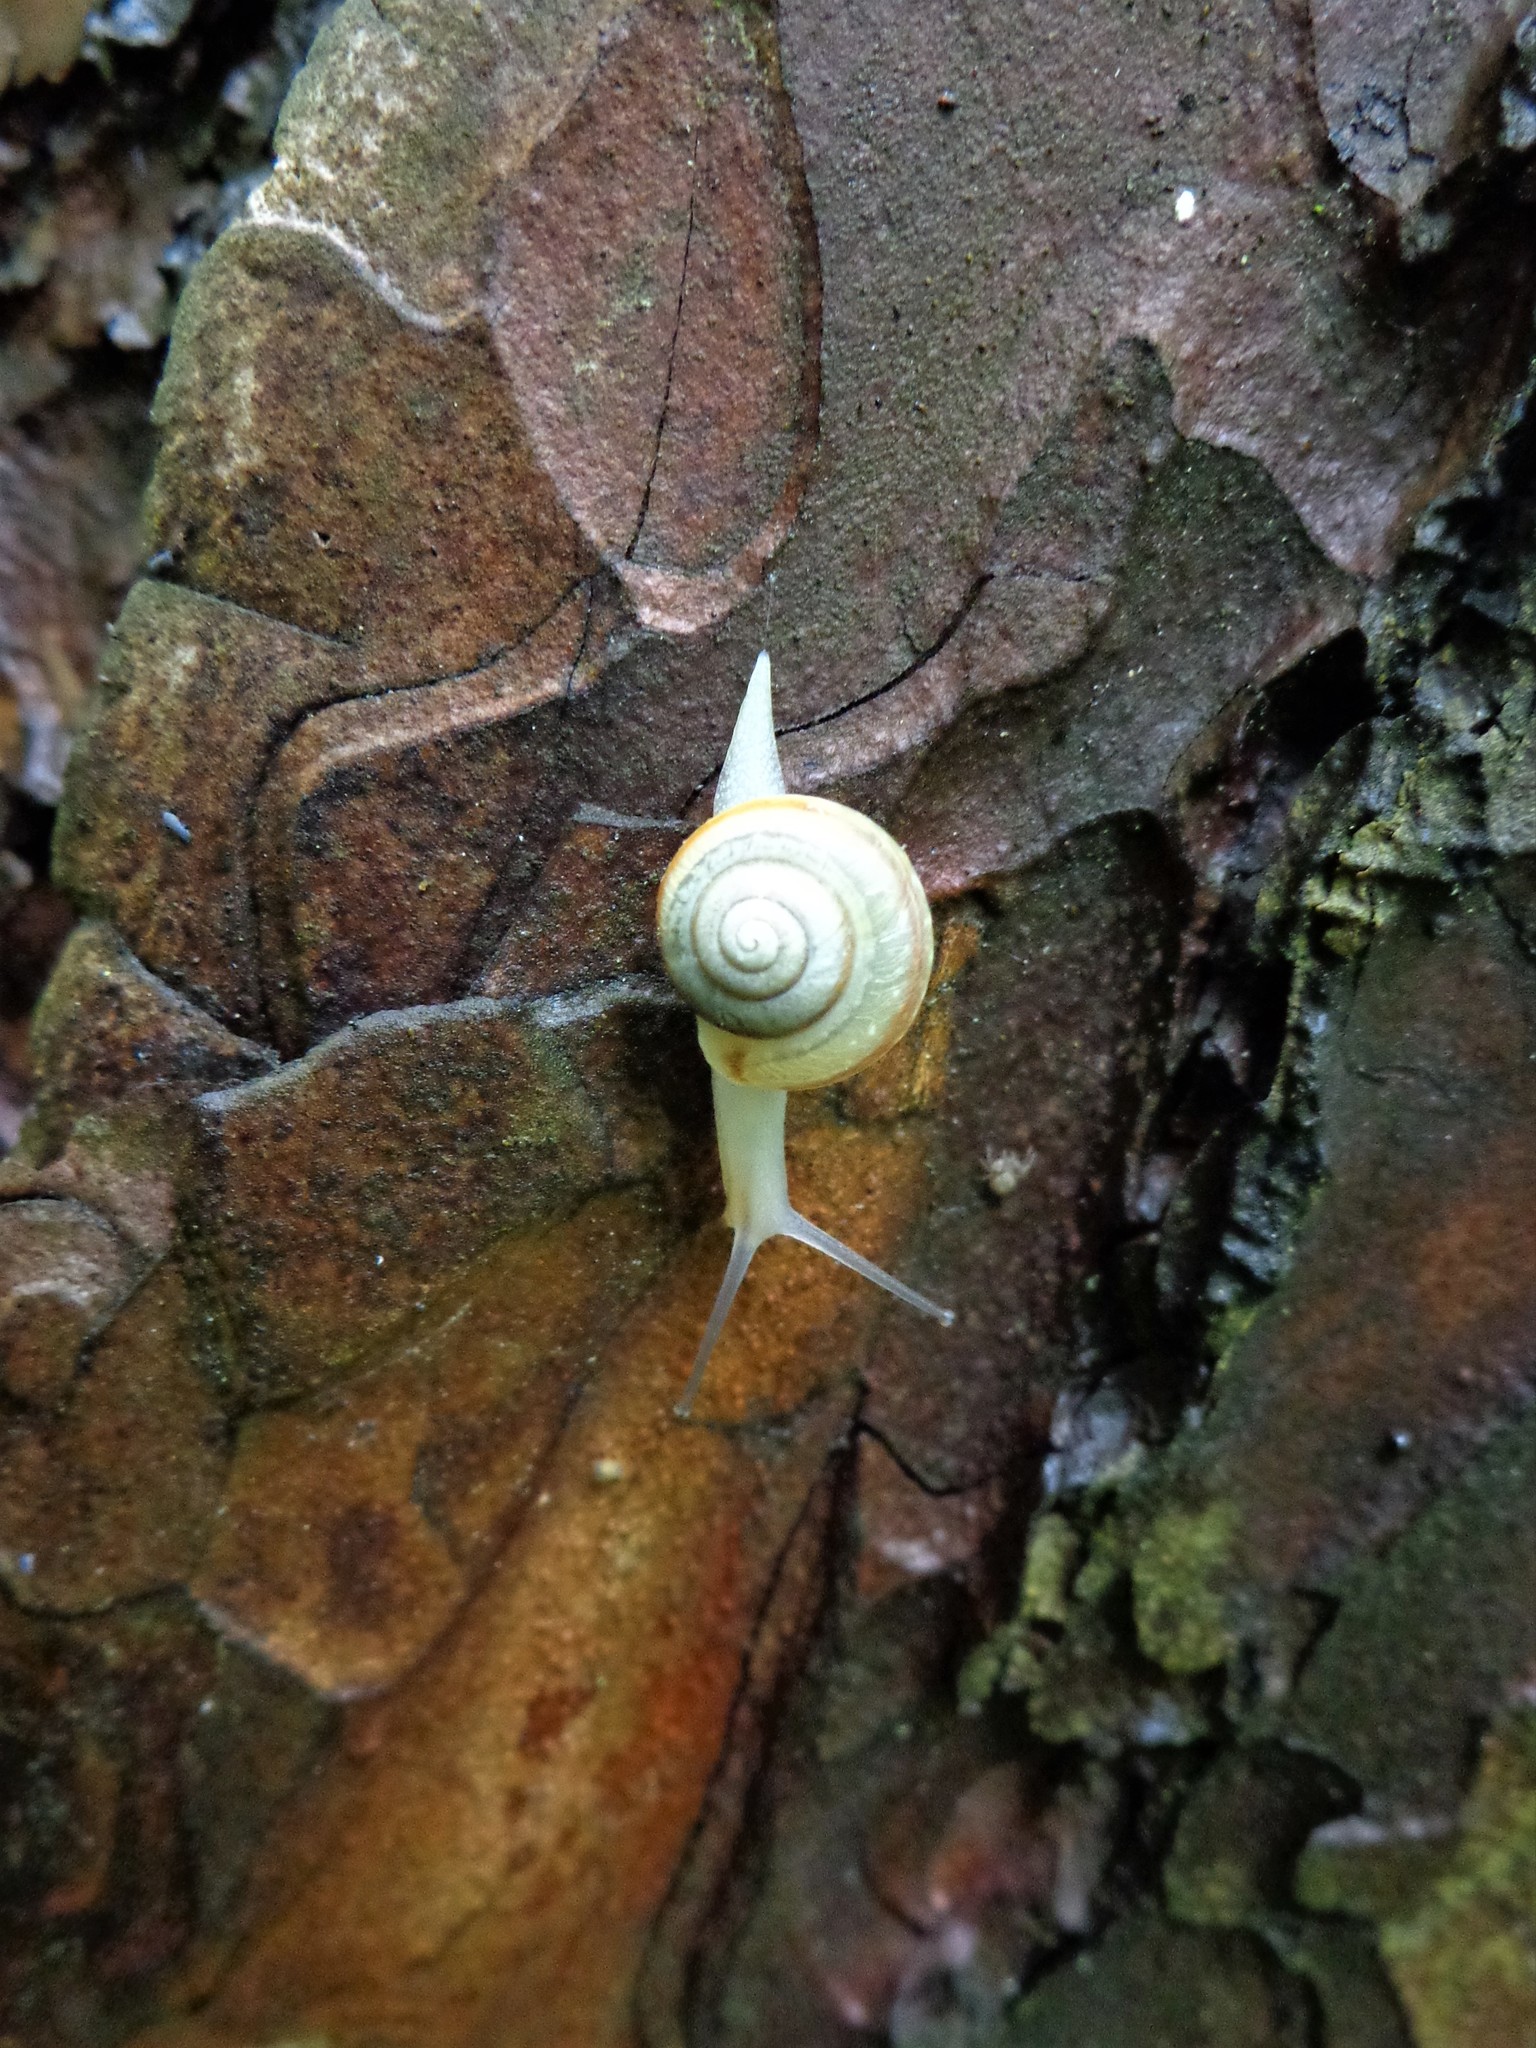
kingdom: Animalia
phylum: Mollusca
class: Gastropoda
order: Stylommatophora
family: Camaenidae
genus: Fruticicola
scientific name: Fruticicola fruticum
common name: Bush snail
